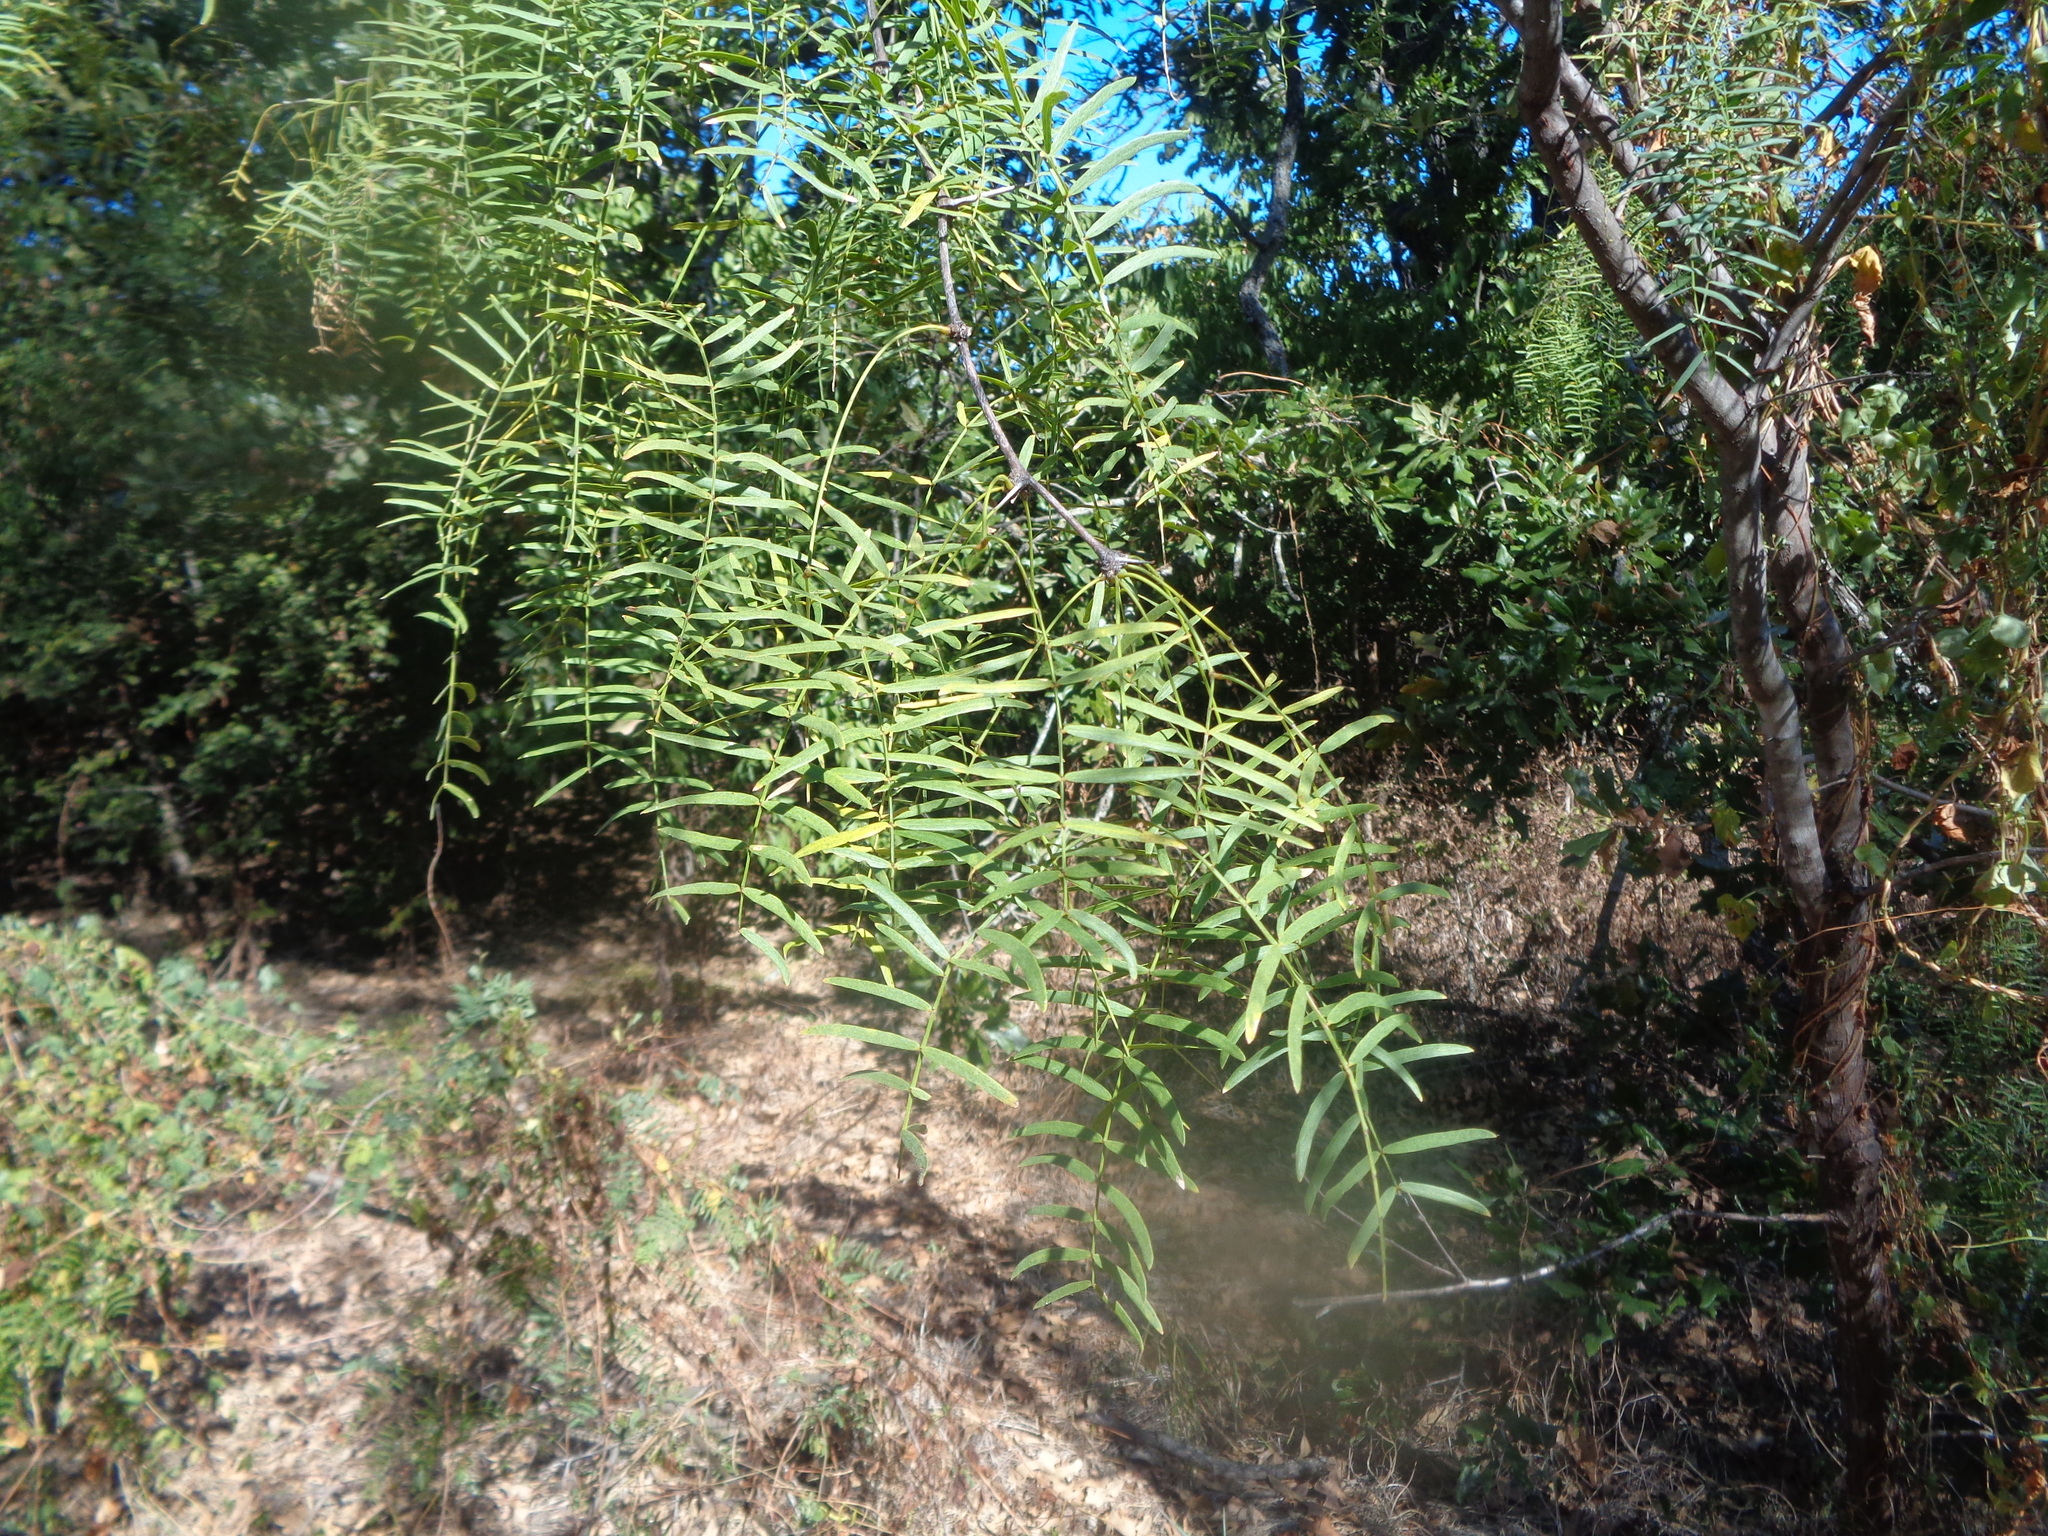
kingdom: Plantae
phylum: Tracheophyta
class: Magnoliopsida
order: Fabales
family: Fabaceae
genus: Prosopis
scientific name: Prosopis glandulosa
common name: Honey mesquite
